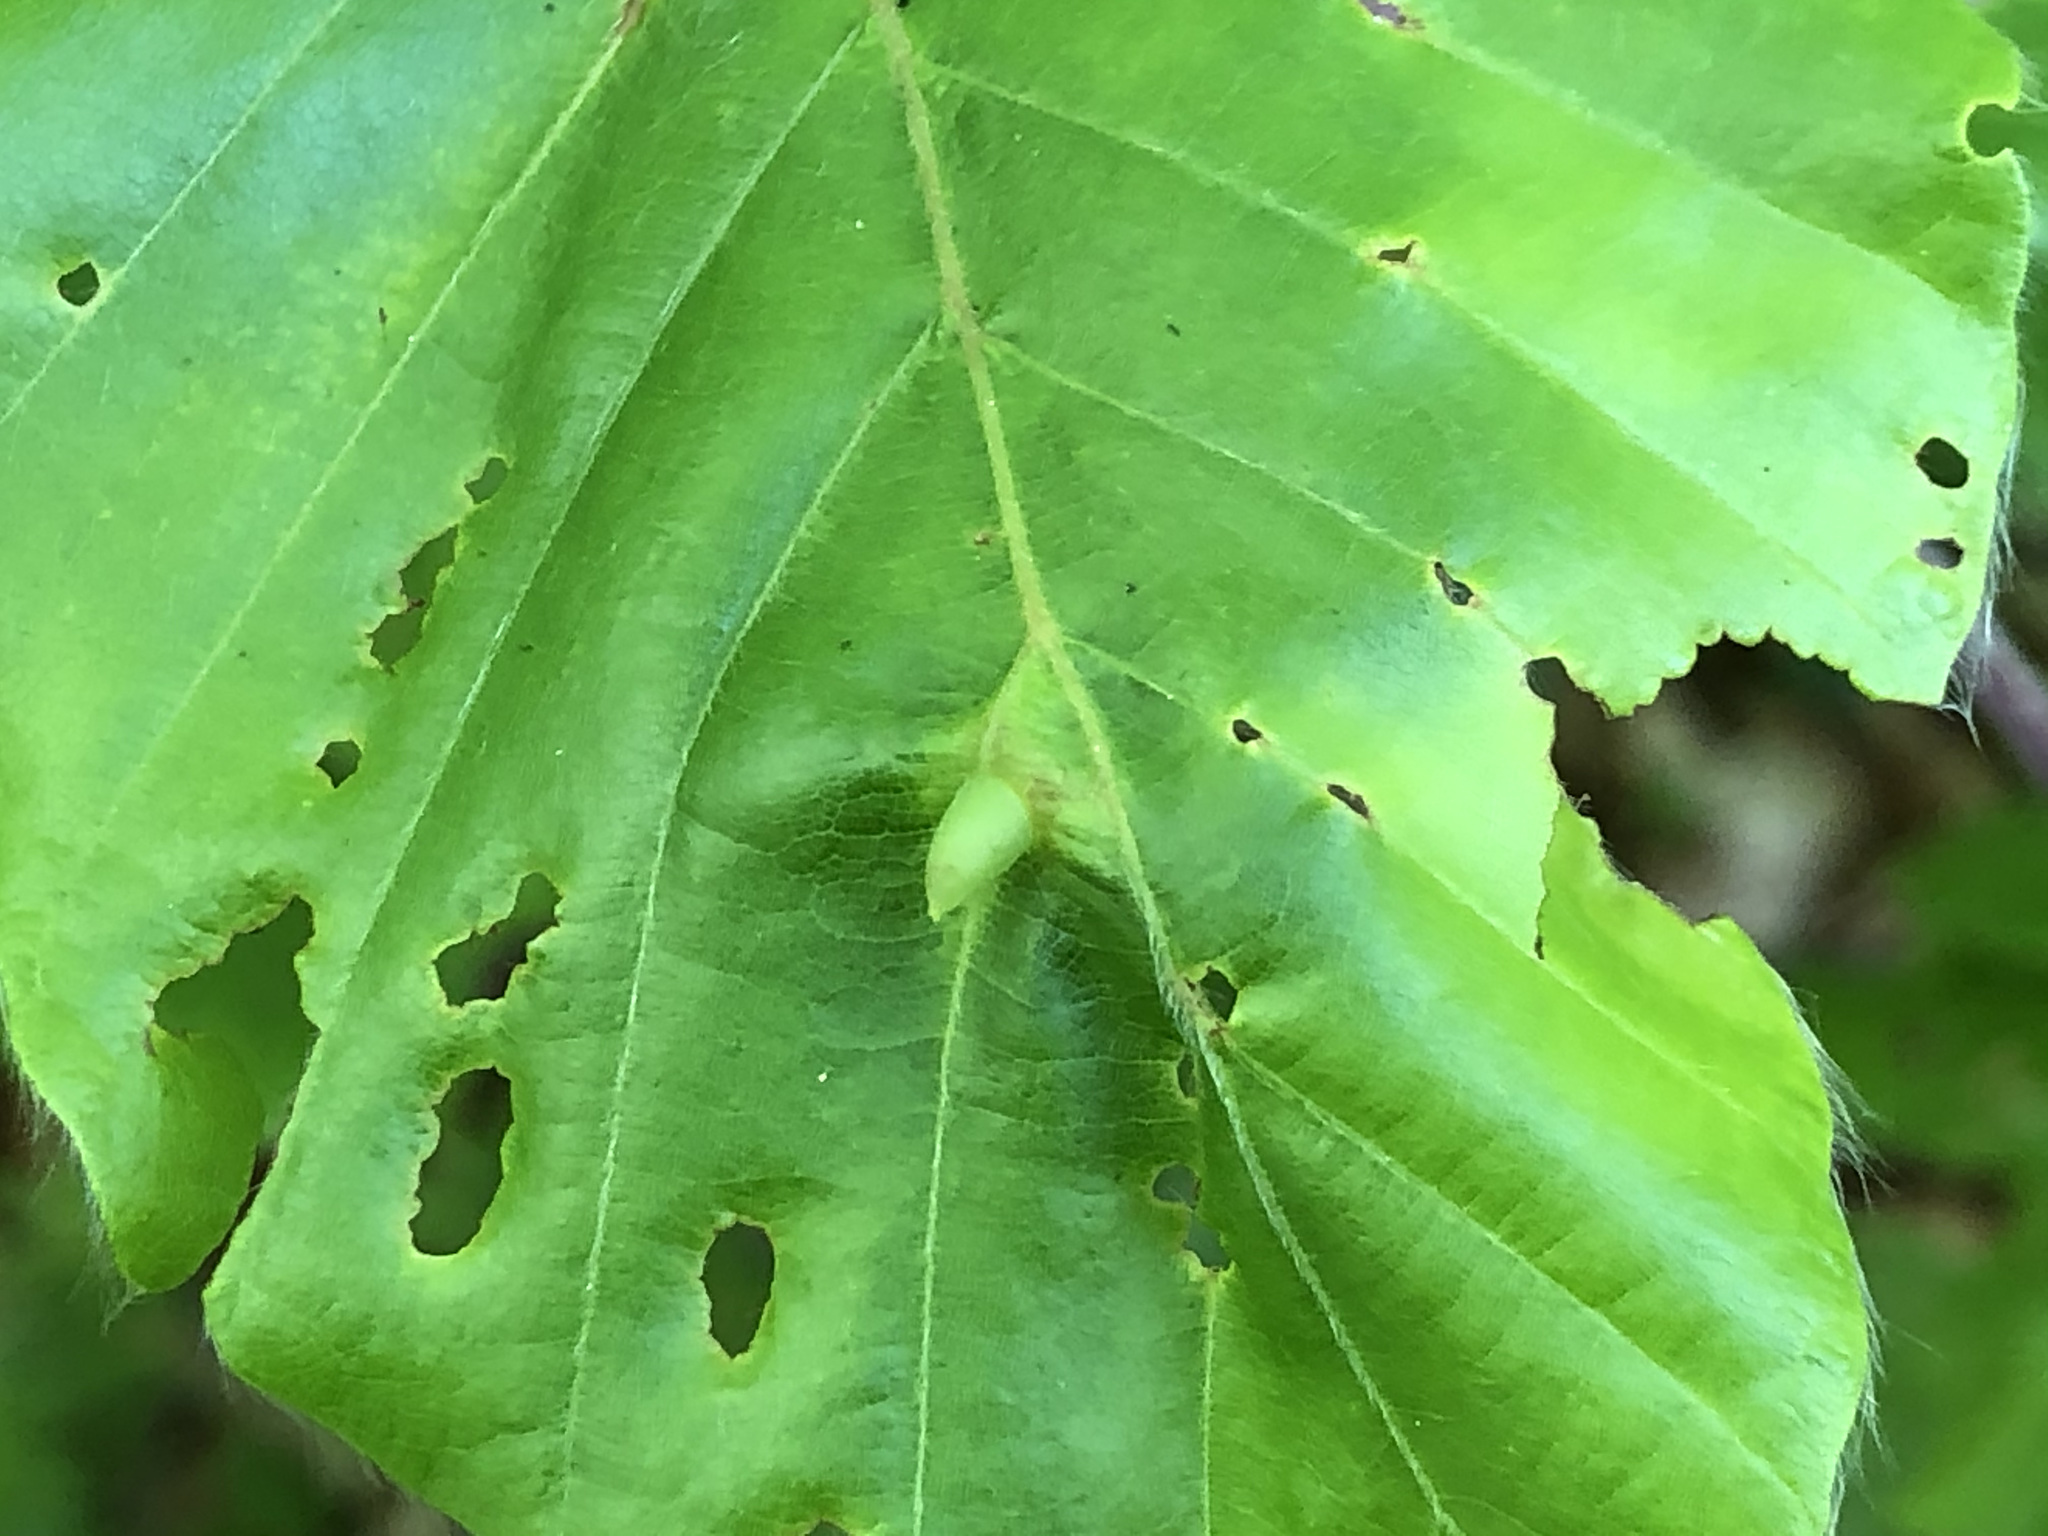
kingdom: Animalia
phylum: Arthropoda
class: Insecta
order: Diptera
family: Cecidomyiidae
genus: Mikiola
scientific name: Mikiola fagi
